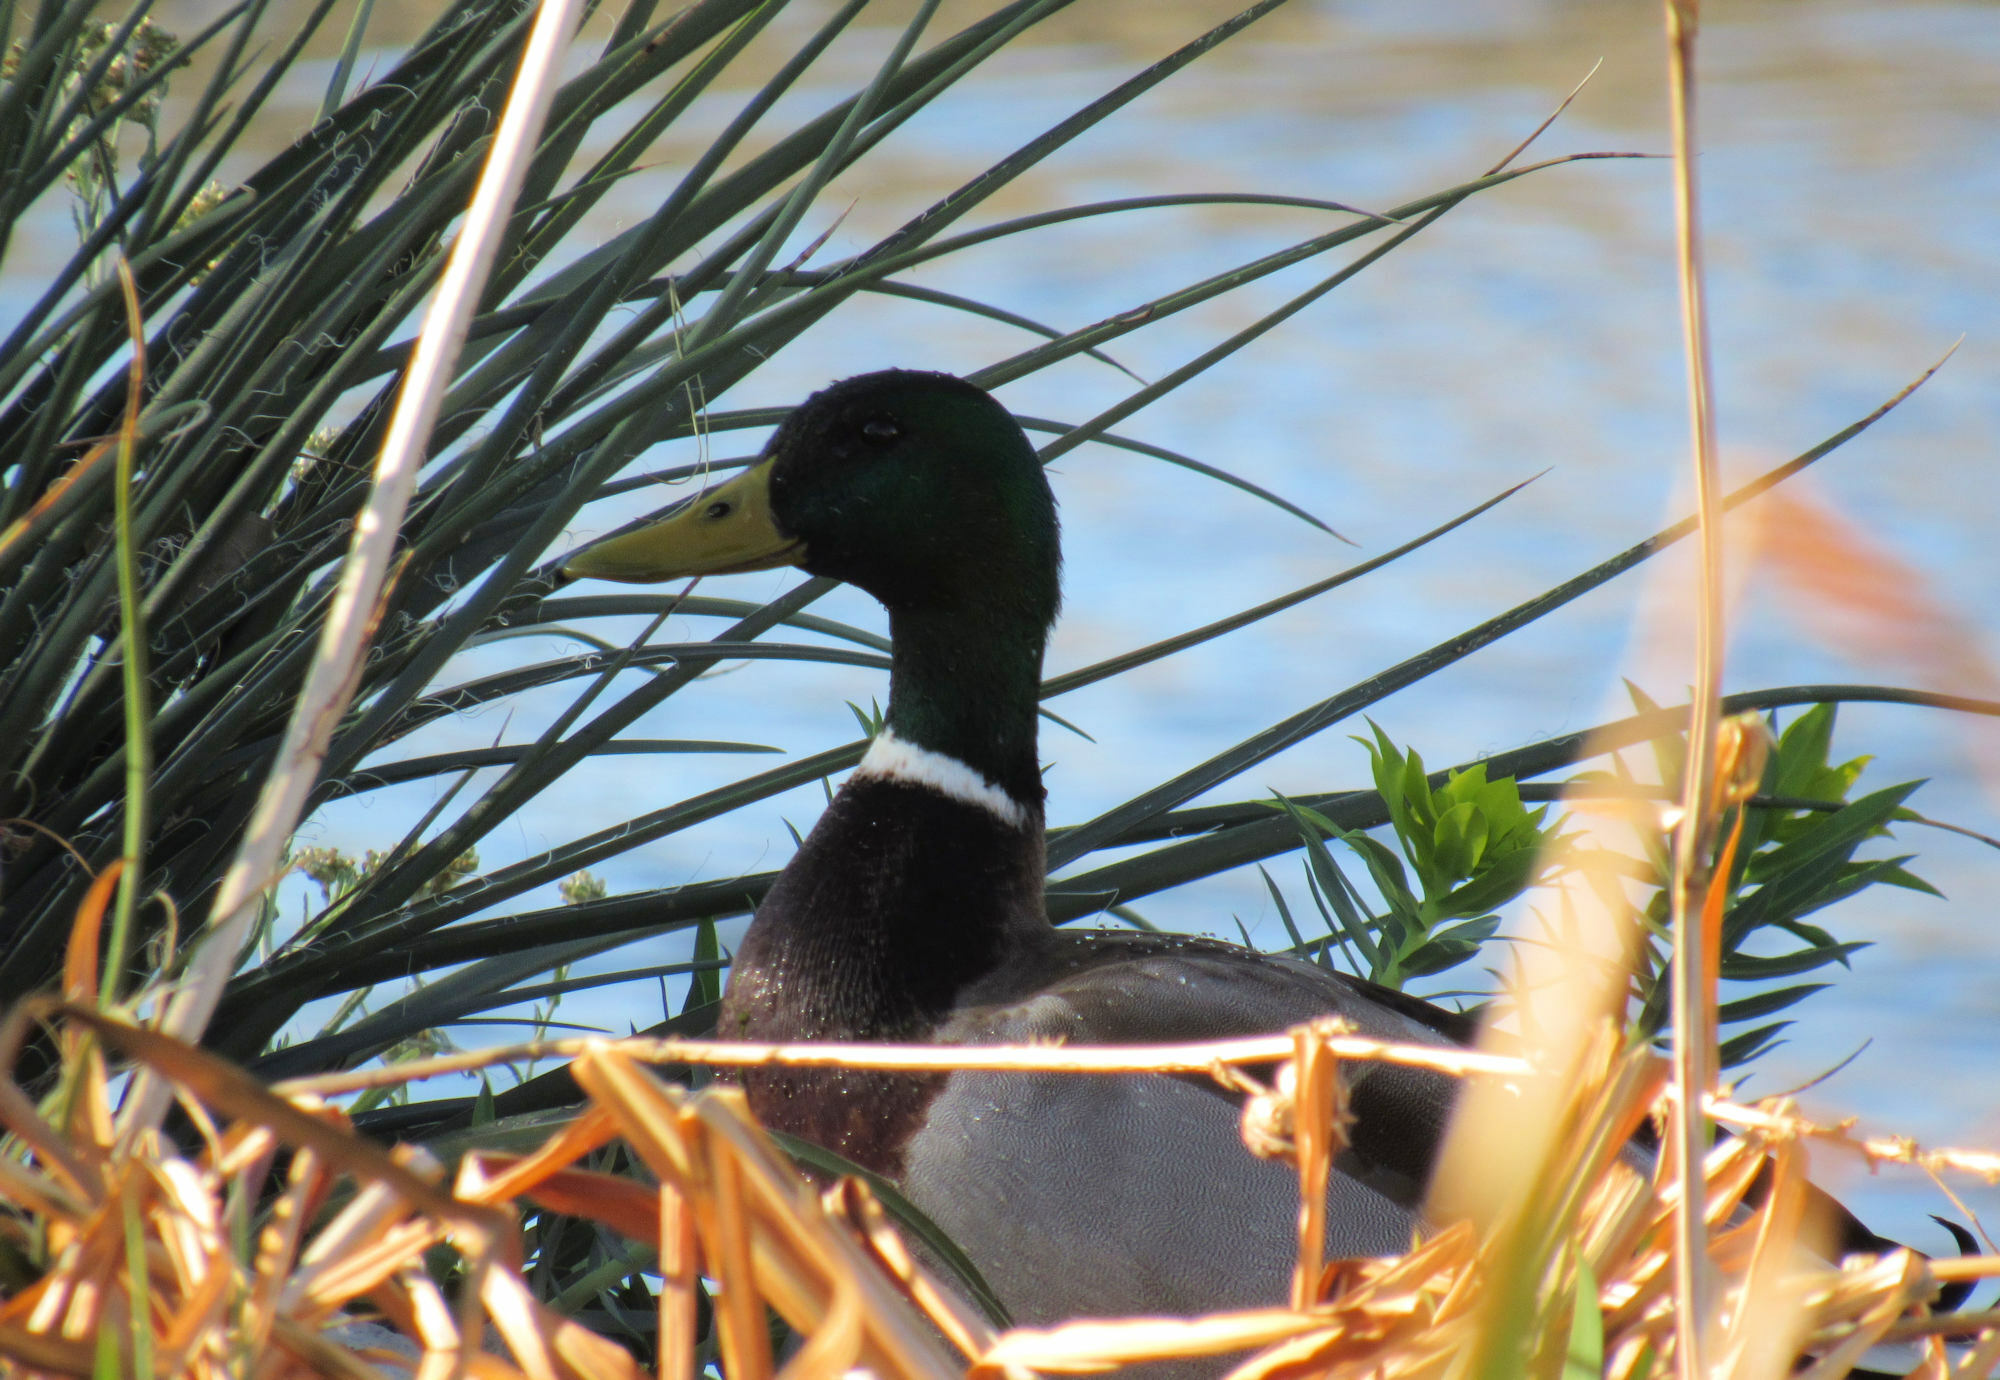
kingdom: Animalia
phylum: Chordata
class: Aves
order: Anseriformes
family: Anatidae
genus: Anas
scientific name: Anas platyrhynchos
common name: Mallard
